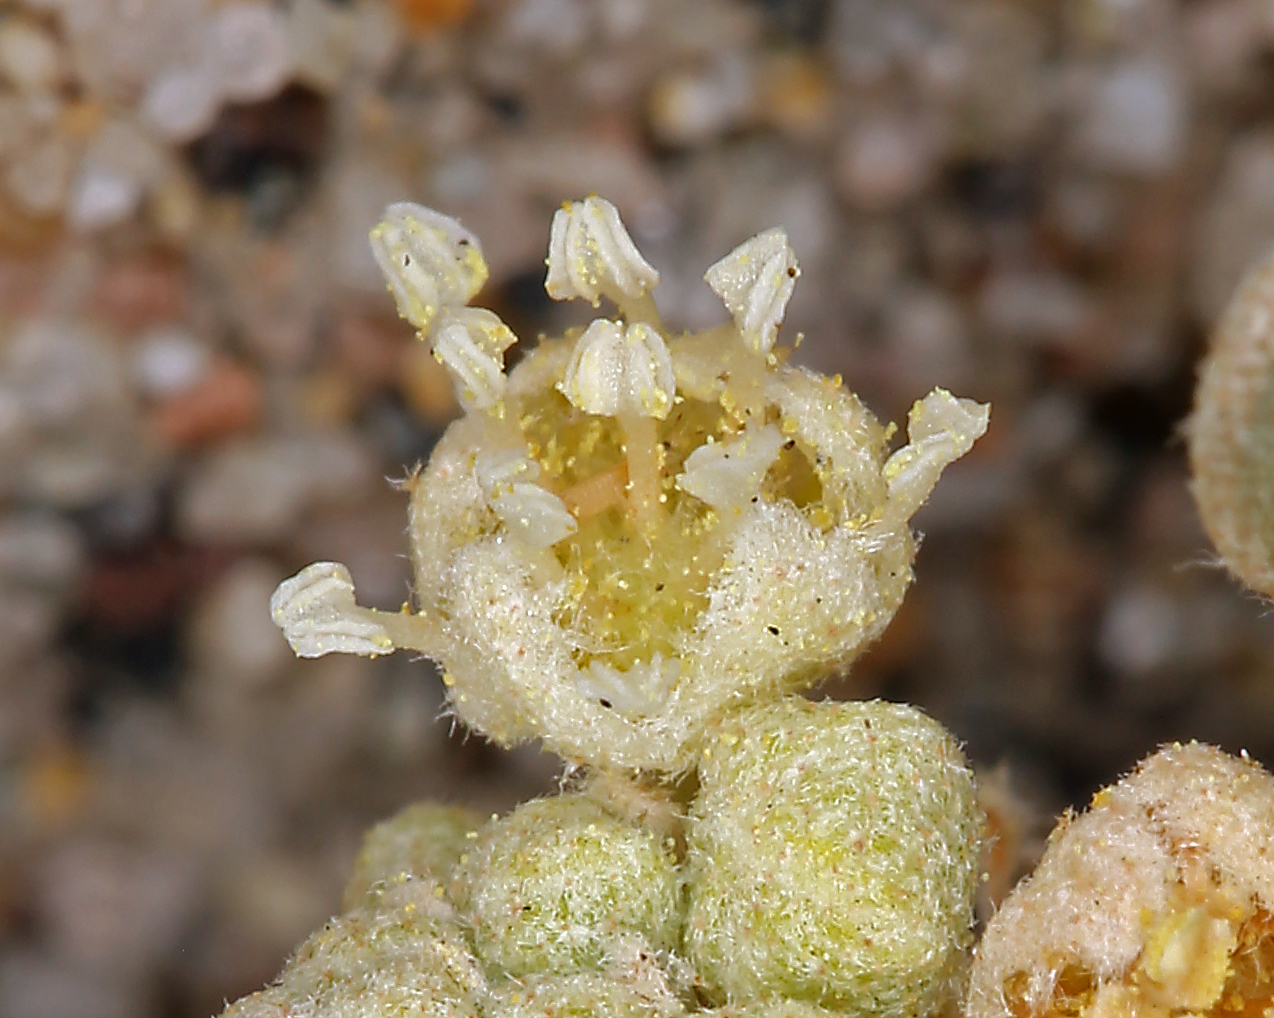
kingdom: Plantae
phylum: Tracheophyta
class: Magnoliopsida
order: Malpighiales
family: Euphorbiaceae
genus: Croton
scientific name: Croton californicus
